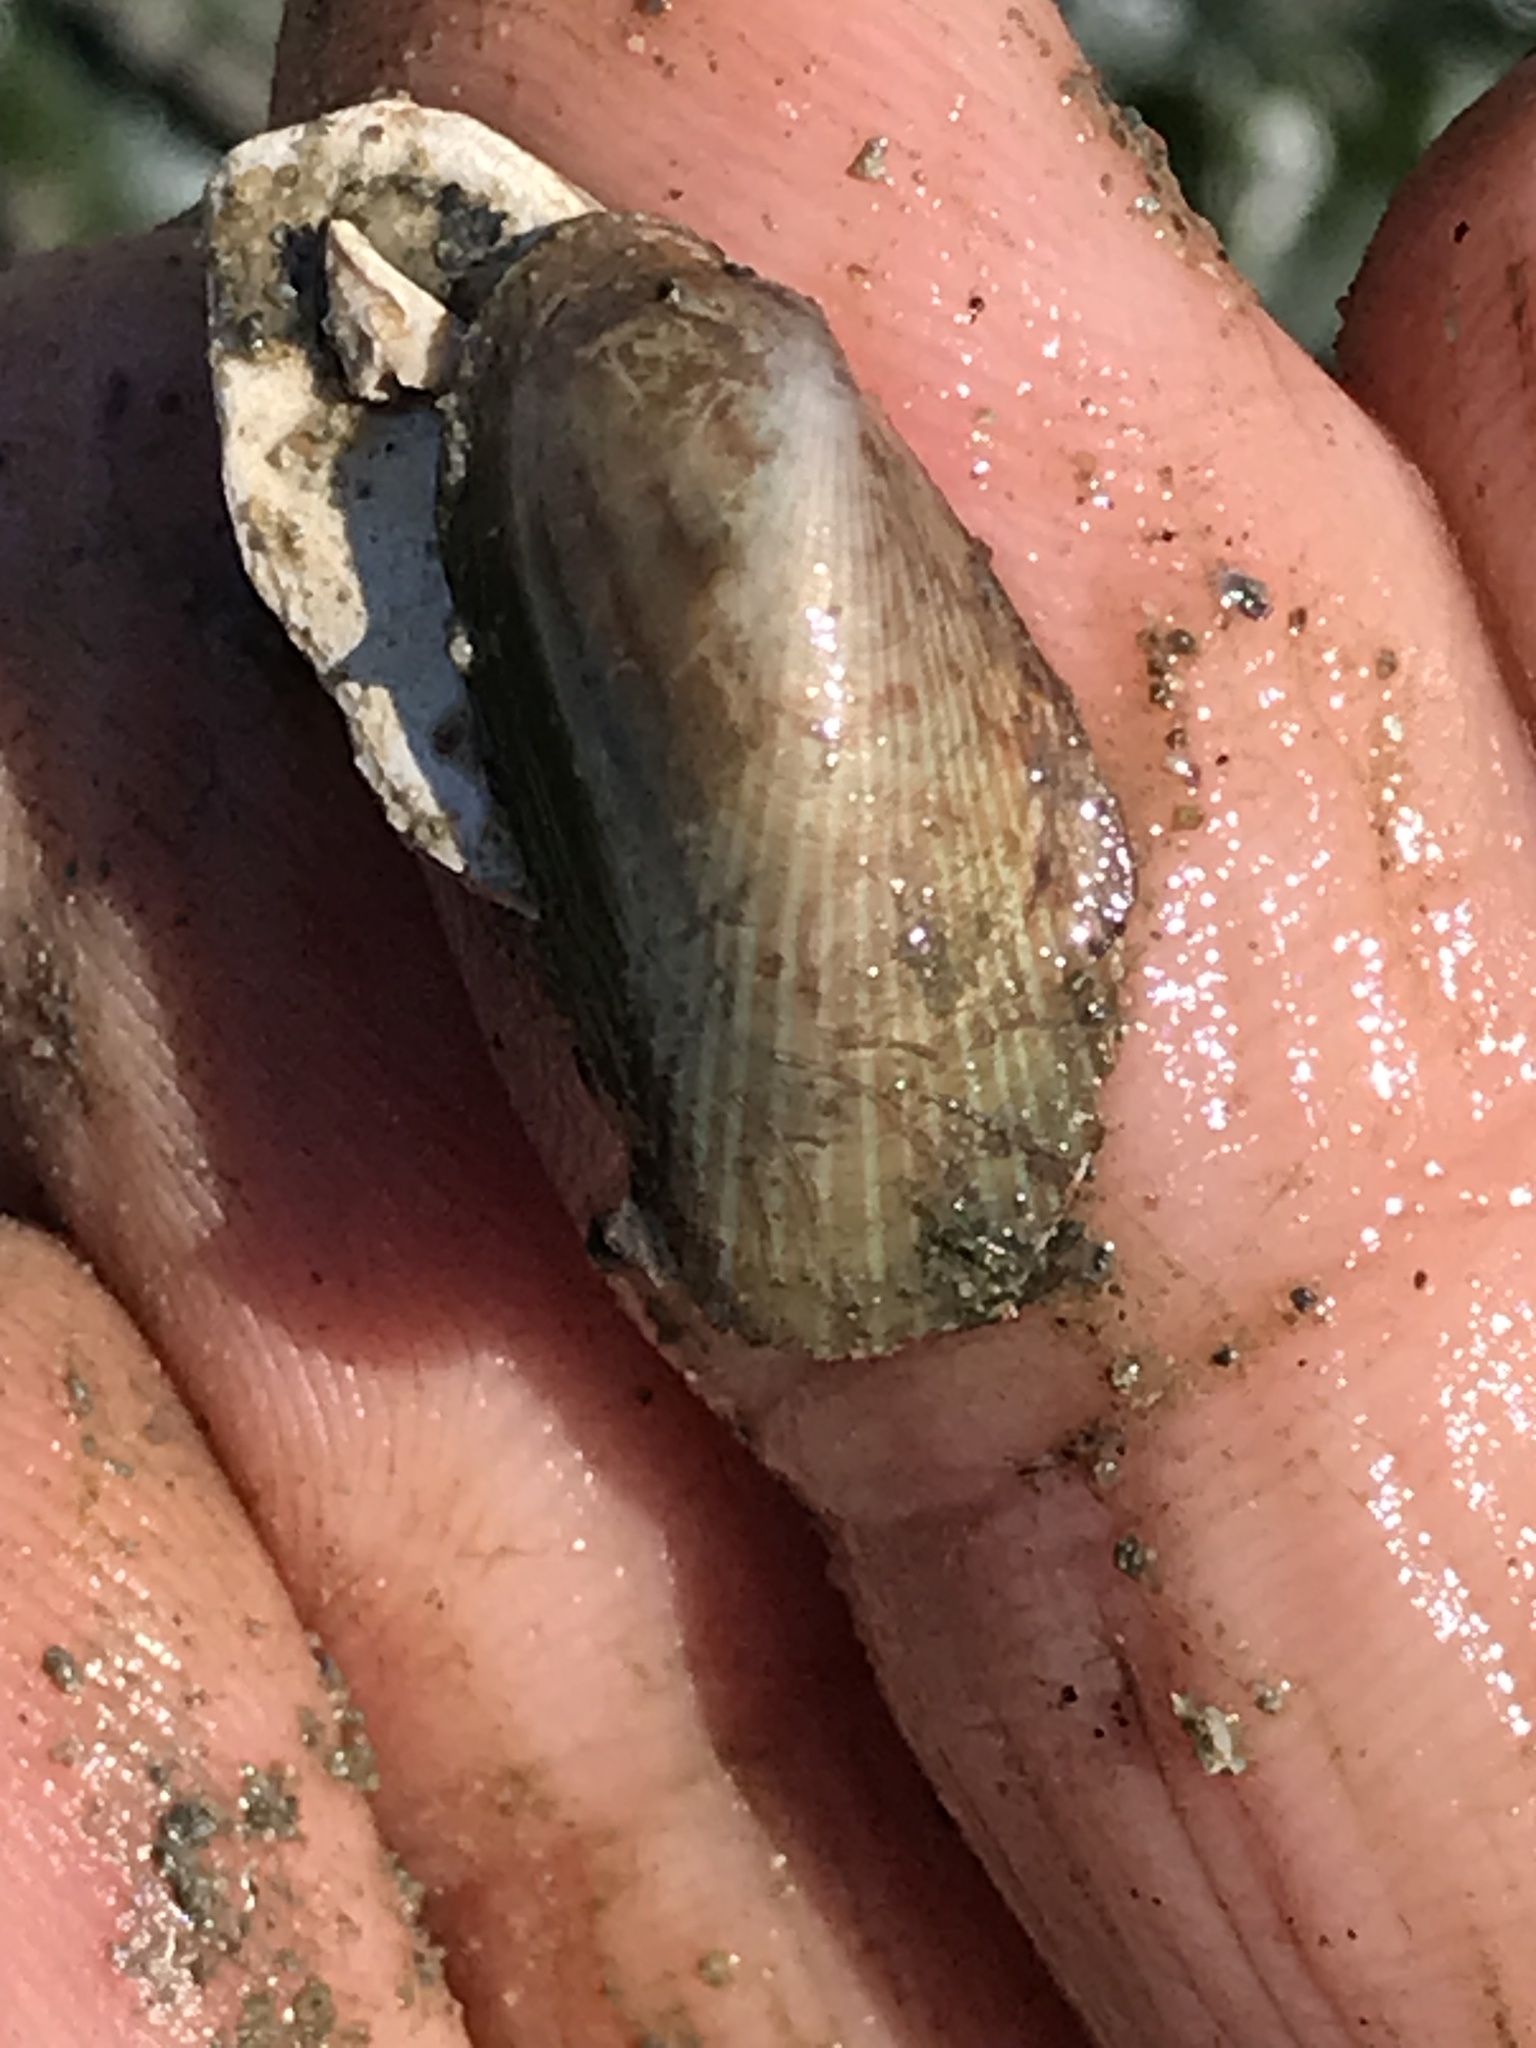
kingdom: Animalia
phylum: Mollusca
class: Bivalvia
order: Mytilida
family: Mytilidae
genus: Arcuatula
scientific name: Arcuatula senhousia
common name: Asian mussel
